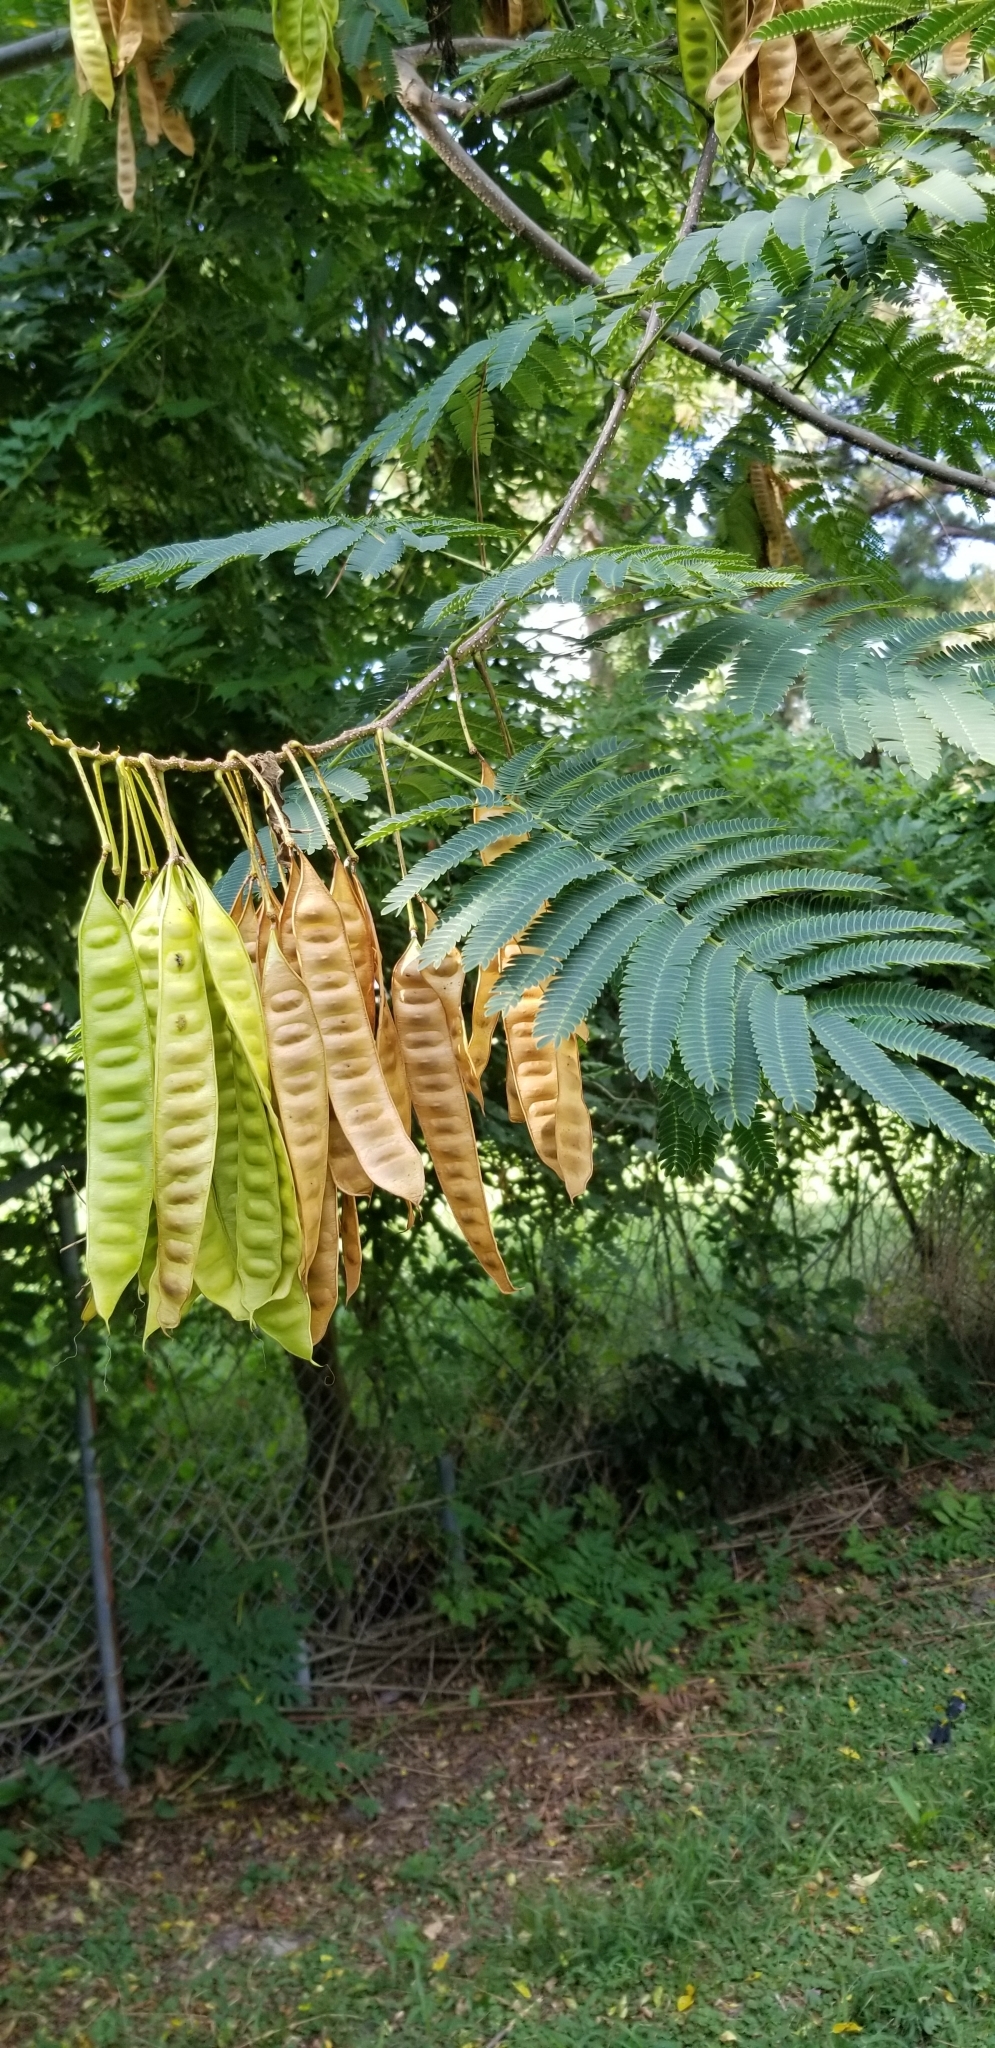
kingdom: Plantae
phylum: Tracheophyta
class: Magnoliopsida
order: Fabales
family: Fabaceae
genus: Albizia
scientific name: Albizia julibrissin
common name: Silktree
